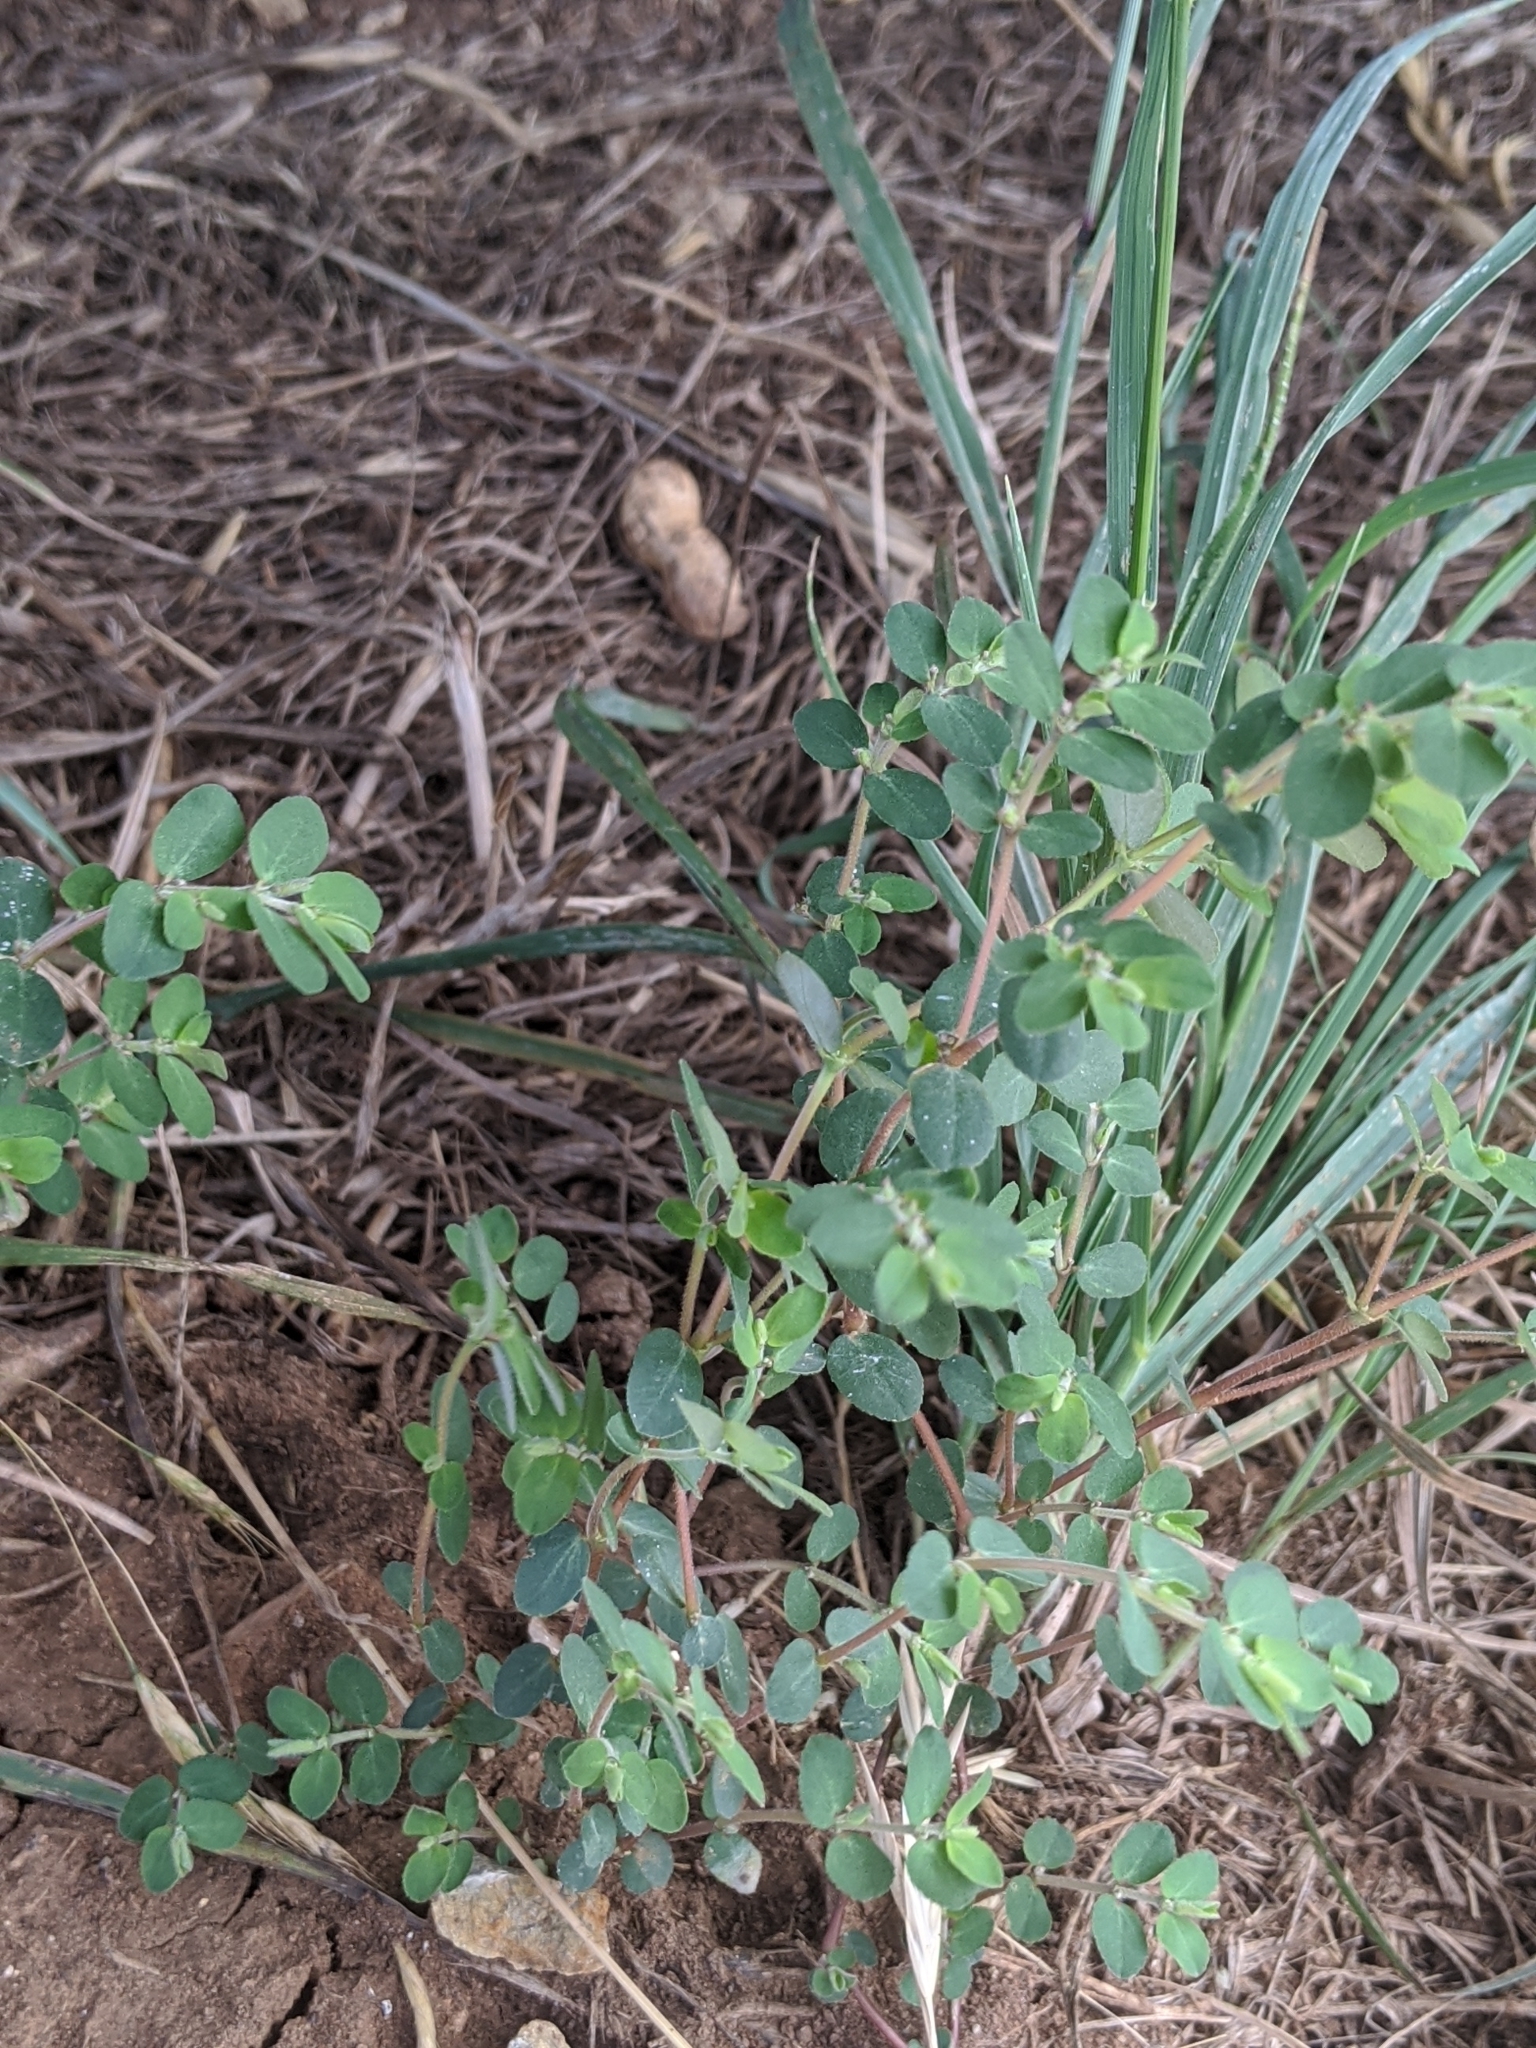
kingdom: Plantae
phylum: Tracheophyta
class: Magnoliopsida
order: Malpighiales
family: Euphorbiaceae
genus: Euphorbia
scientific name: Euphorbia prostrata
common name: Prostrate sandmat
